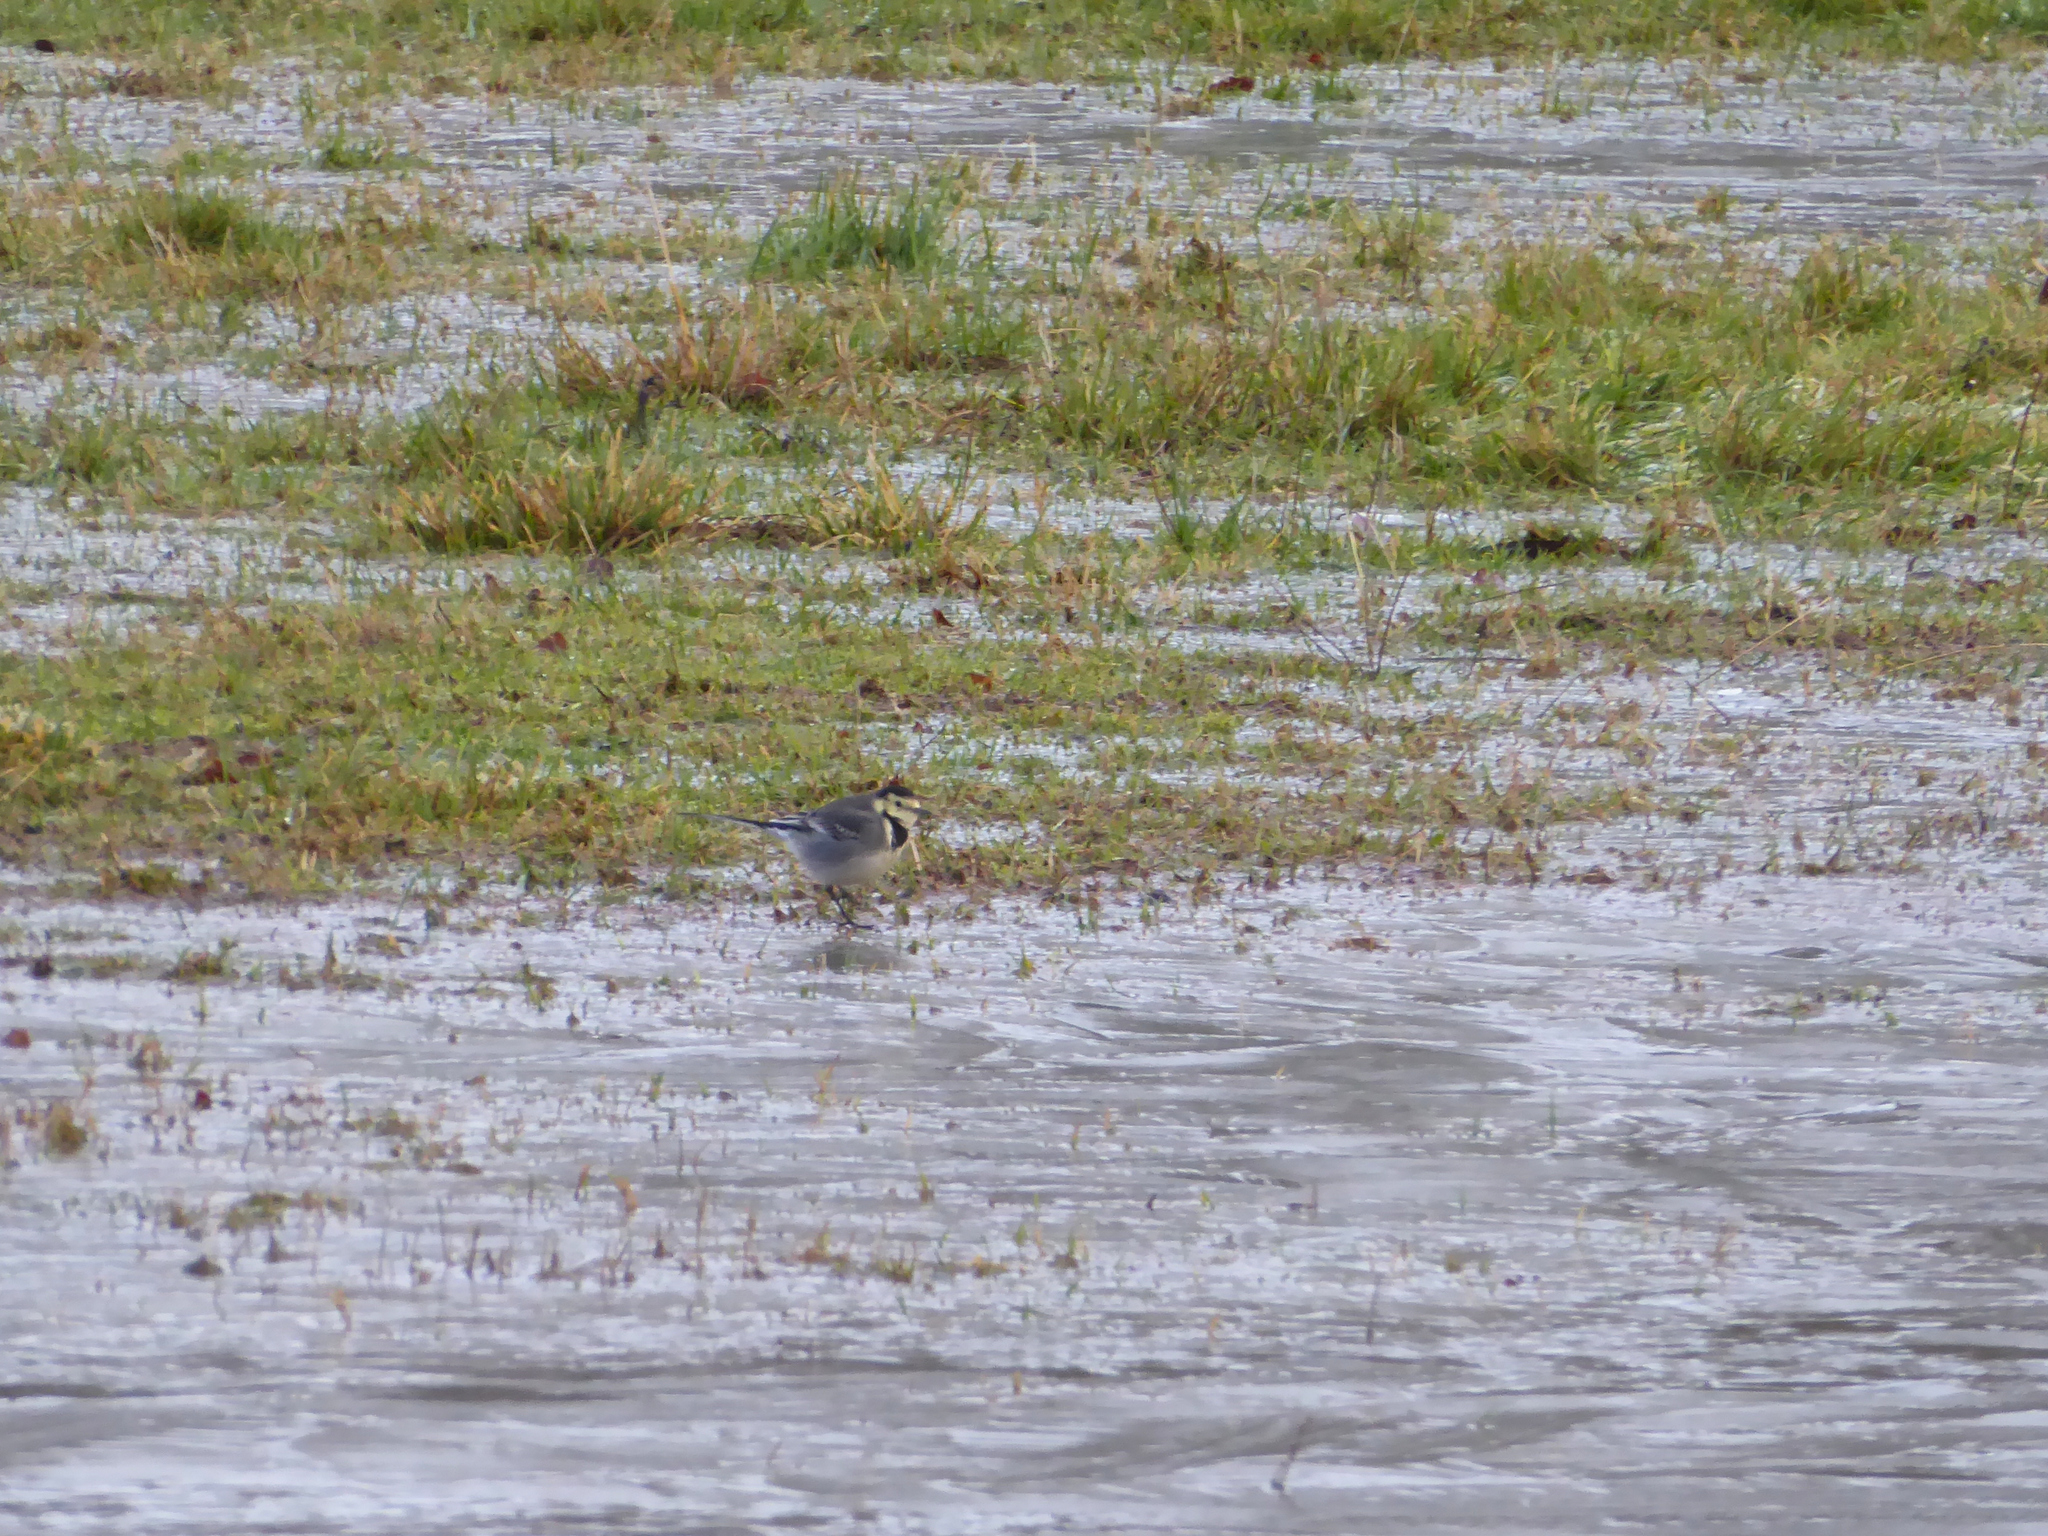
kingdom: Animalia
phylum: Chordata
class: Aves
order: Passeriformes
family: Motacillidae
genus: Motacilla
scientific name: Motacilla alba
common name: White wagtail
